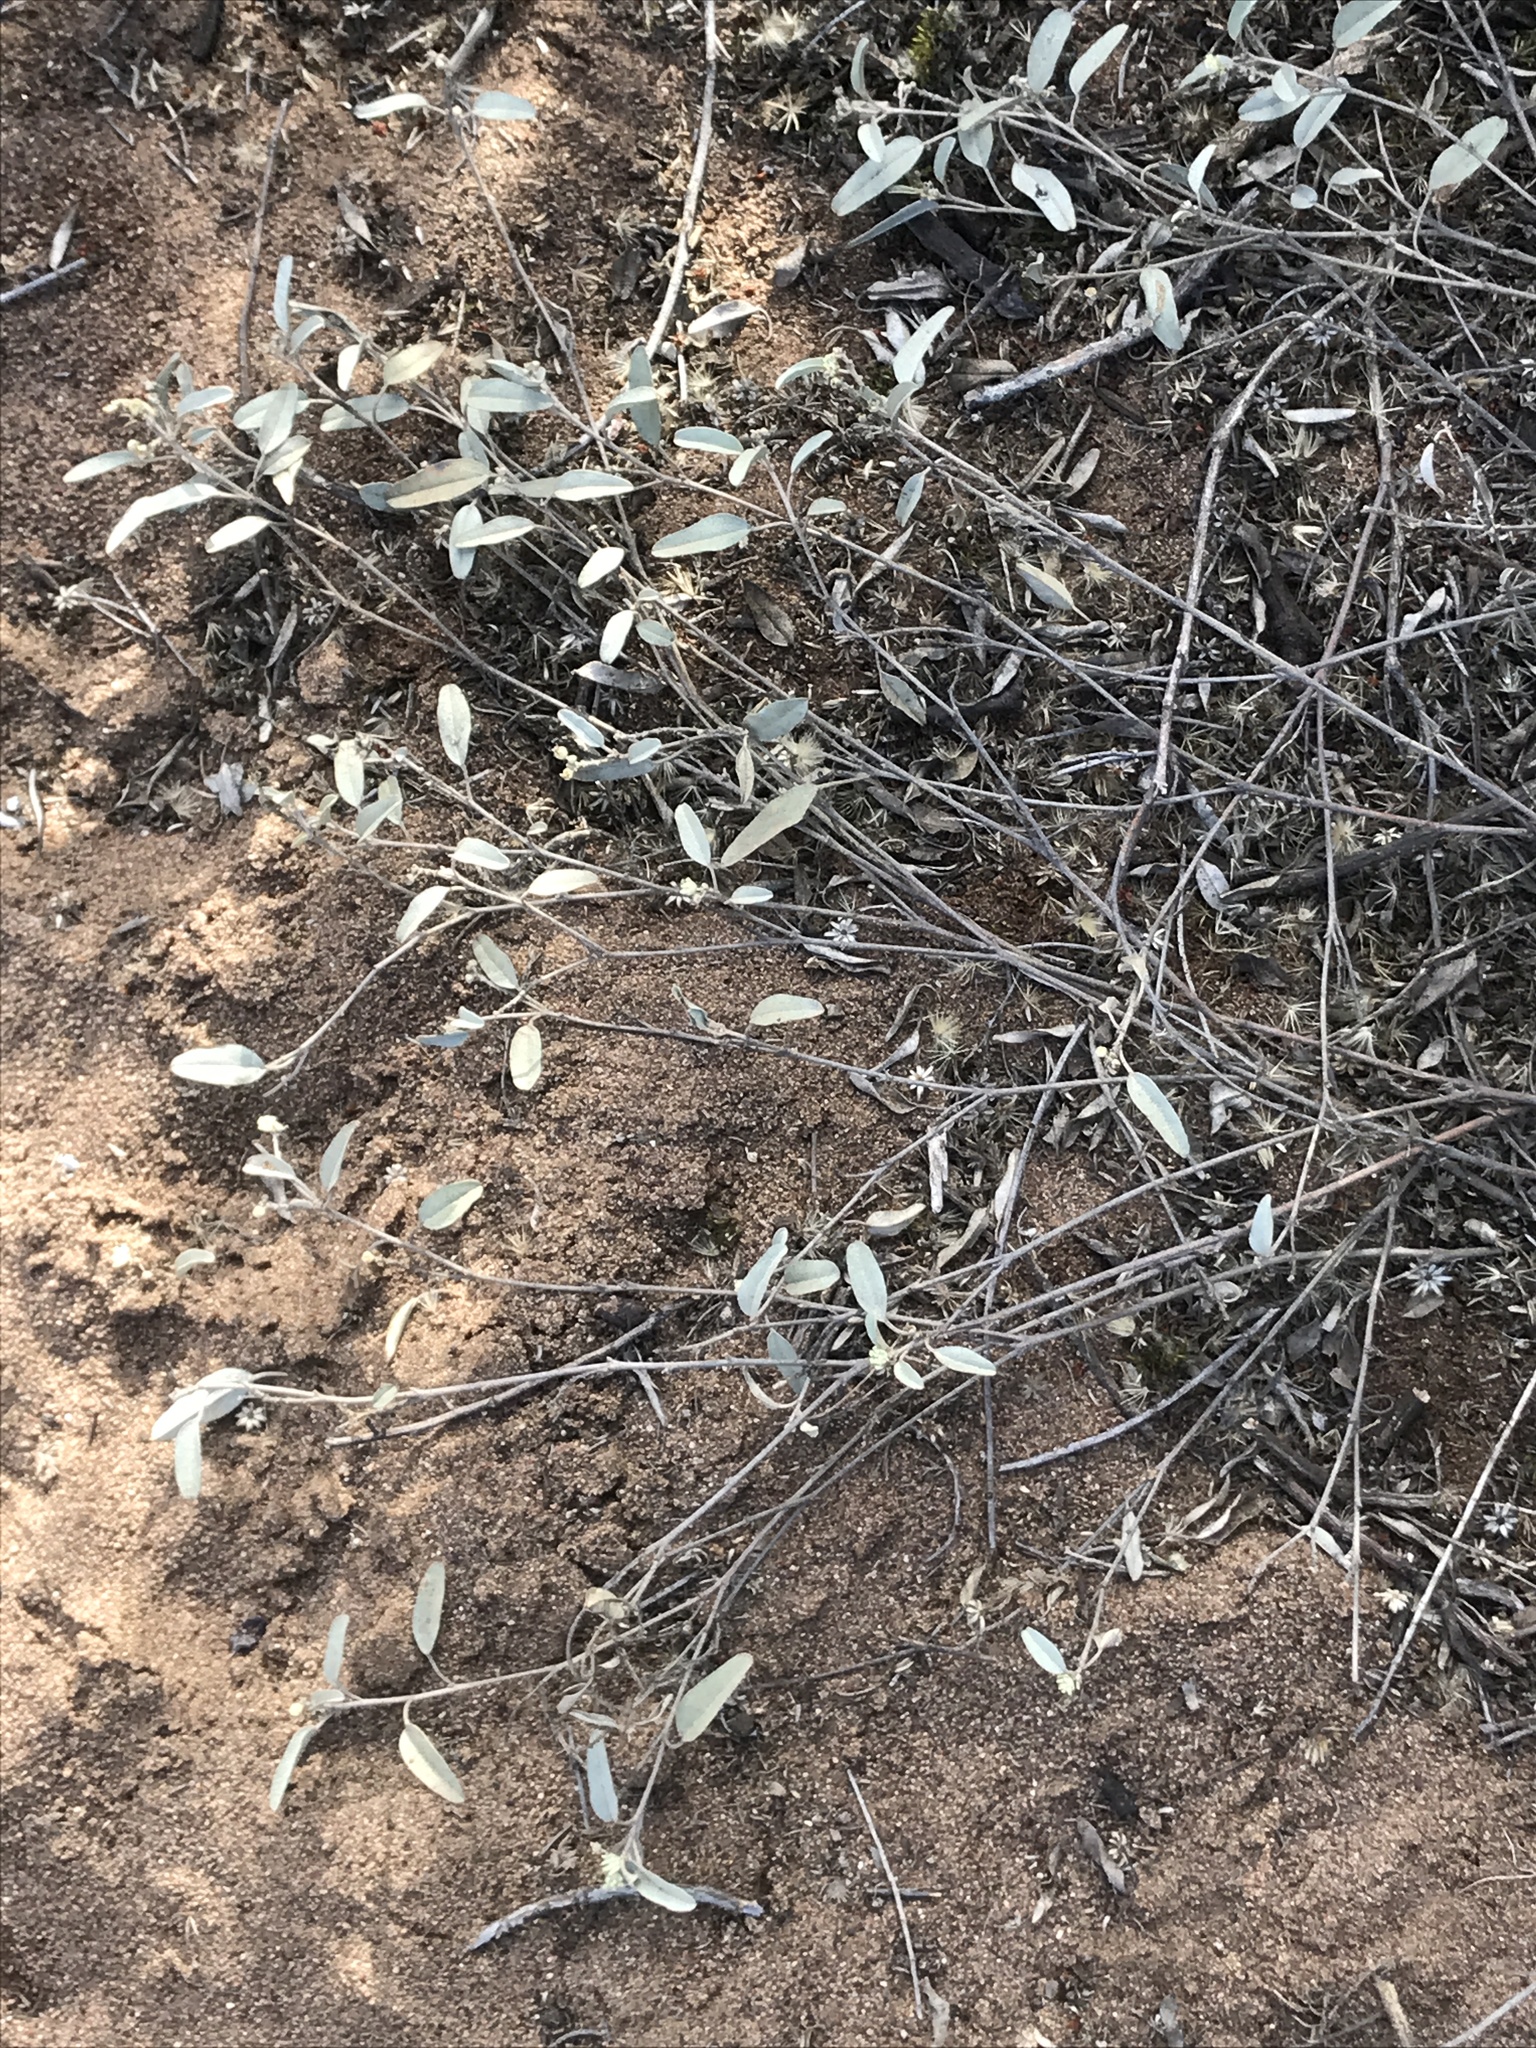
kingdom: Plantae
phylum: Tracheophyta
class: Magnoliopsida
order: Malpighiales
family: Euphorbiaceae
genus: Croton
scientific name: Croton californicus
